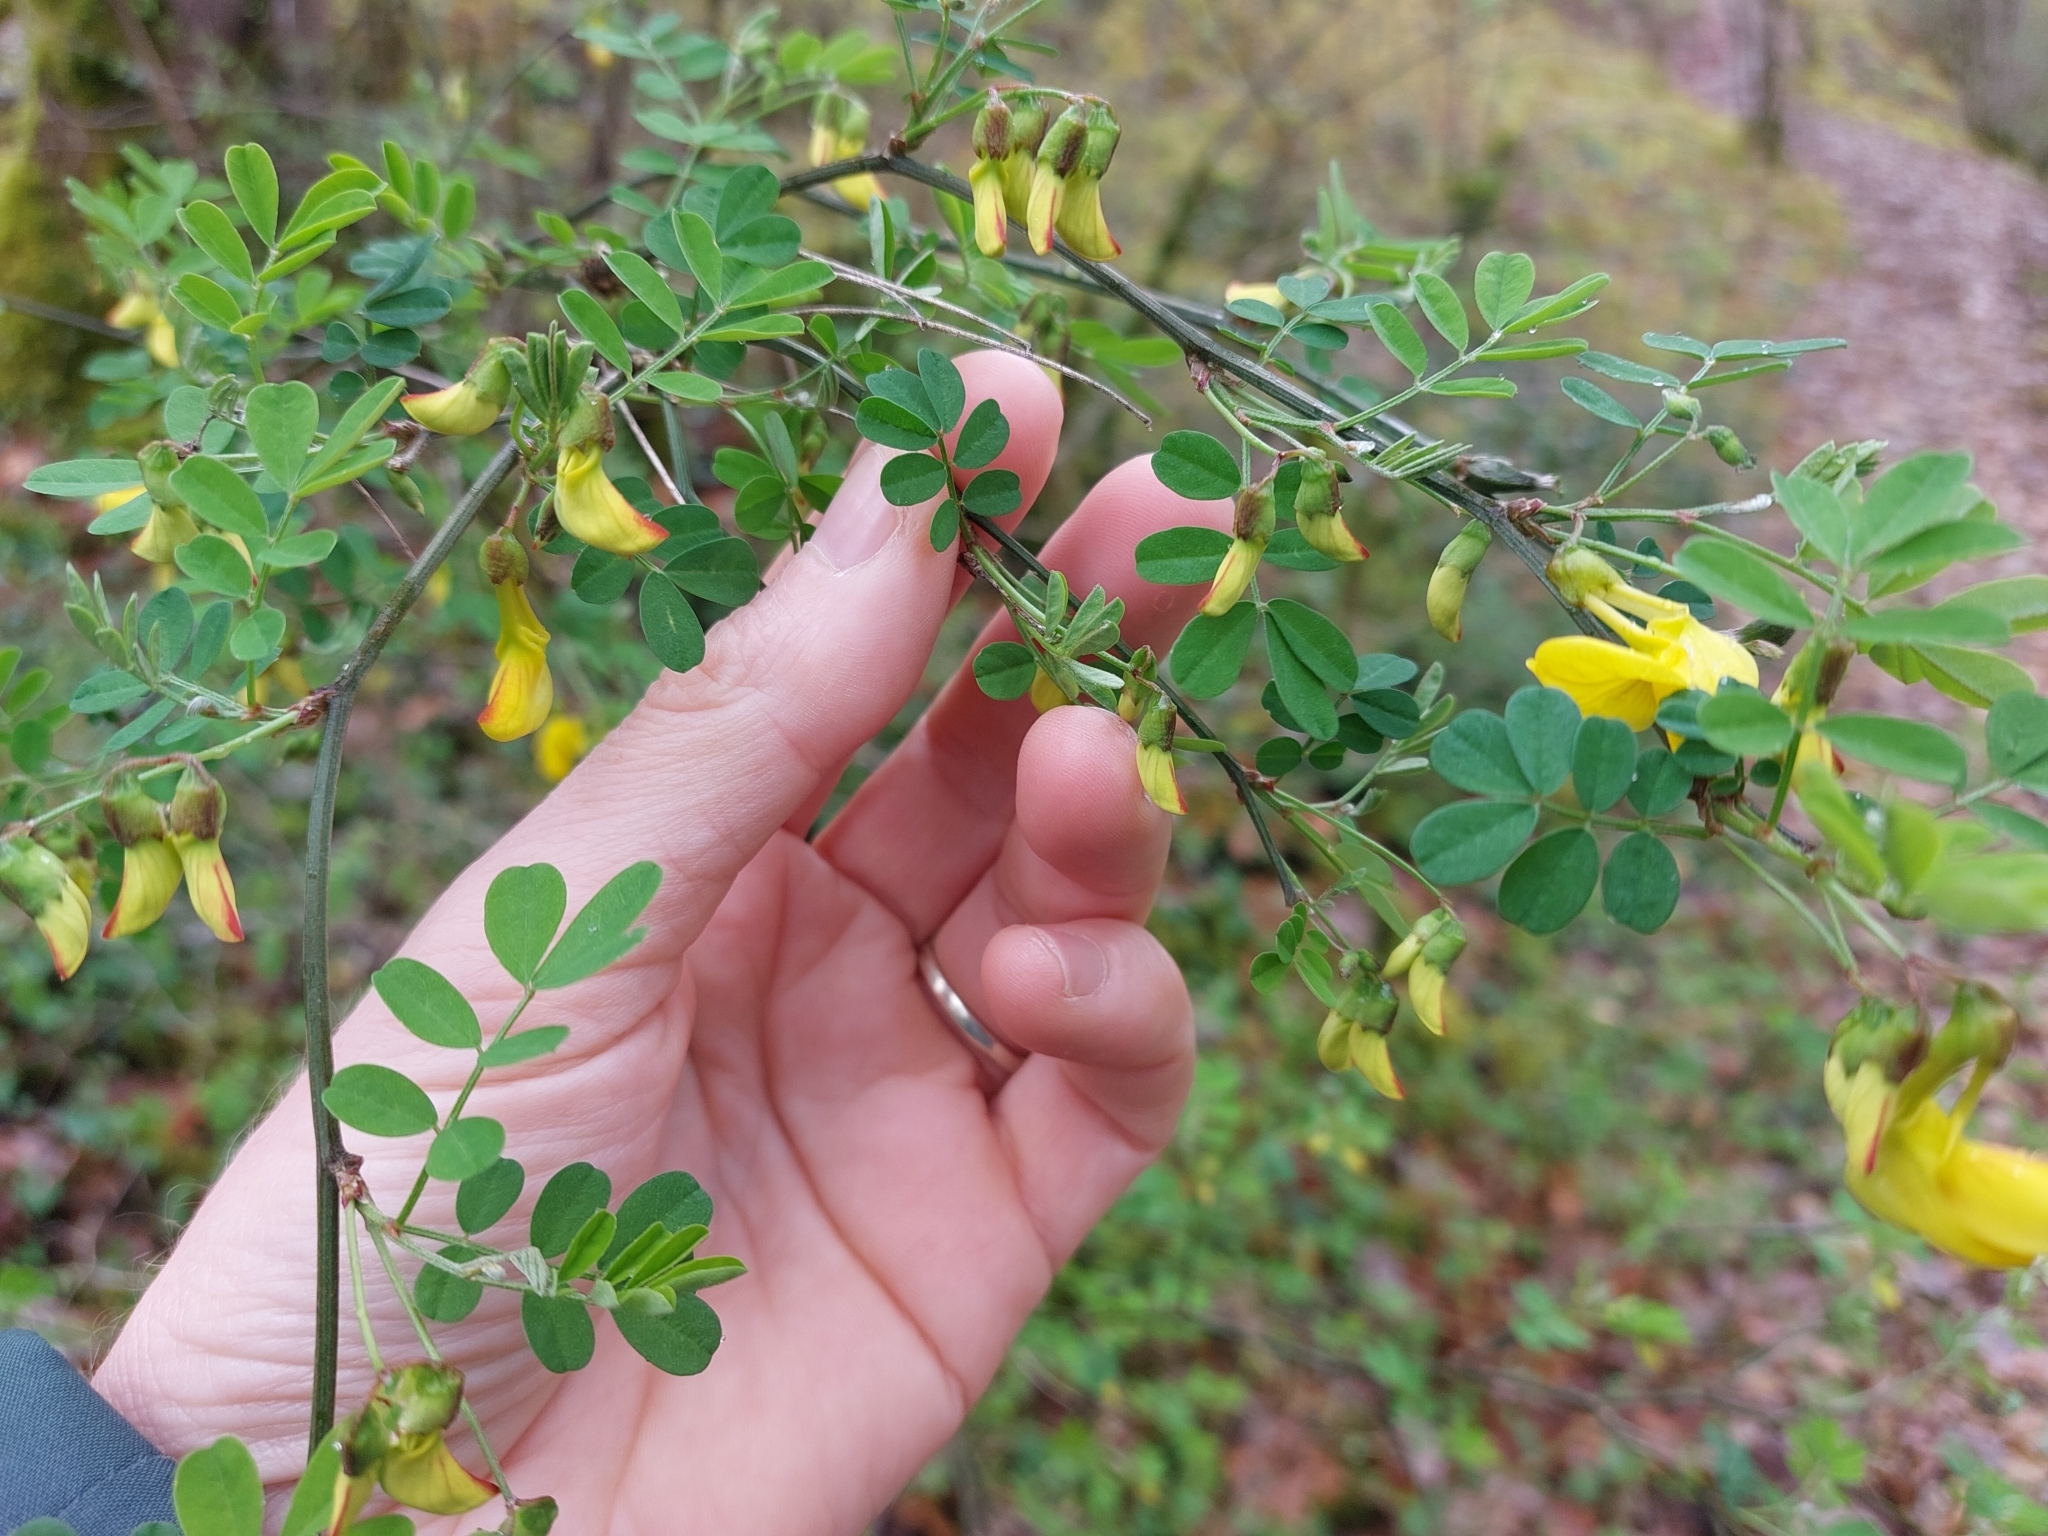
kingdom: Plantae
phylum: Tracheophyta
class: Magnoliopsida
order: Fabales
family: Fabaceae
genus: Hippocrepis
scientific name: Hippocrepis emerus
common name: Scorpion senna
